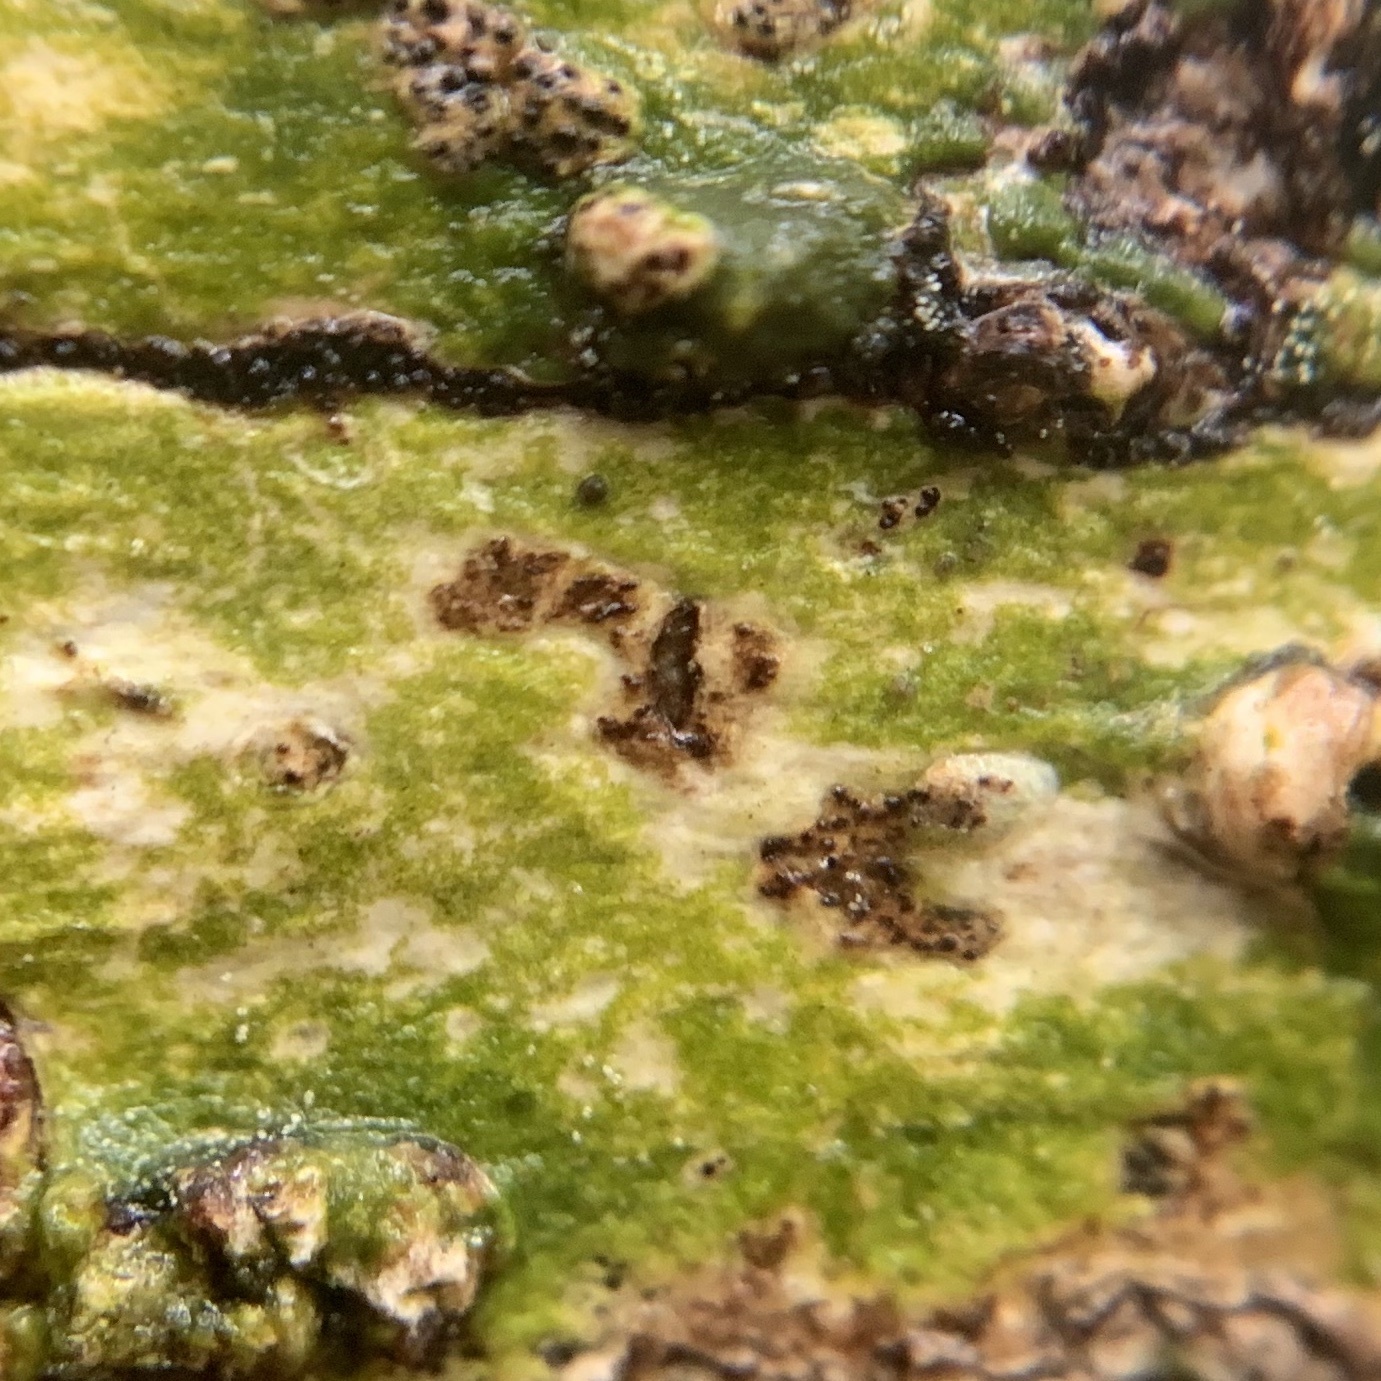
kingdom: Fungi
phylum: Ascomycota
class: Dothideomycetes
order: Trypetheliales
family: Trypetheliaceae
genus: Viridothelium
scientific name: Viridothelium virens
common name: Speckled blister lichen
